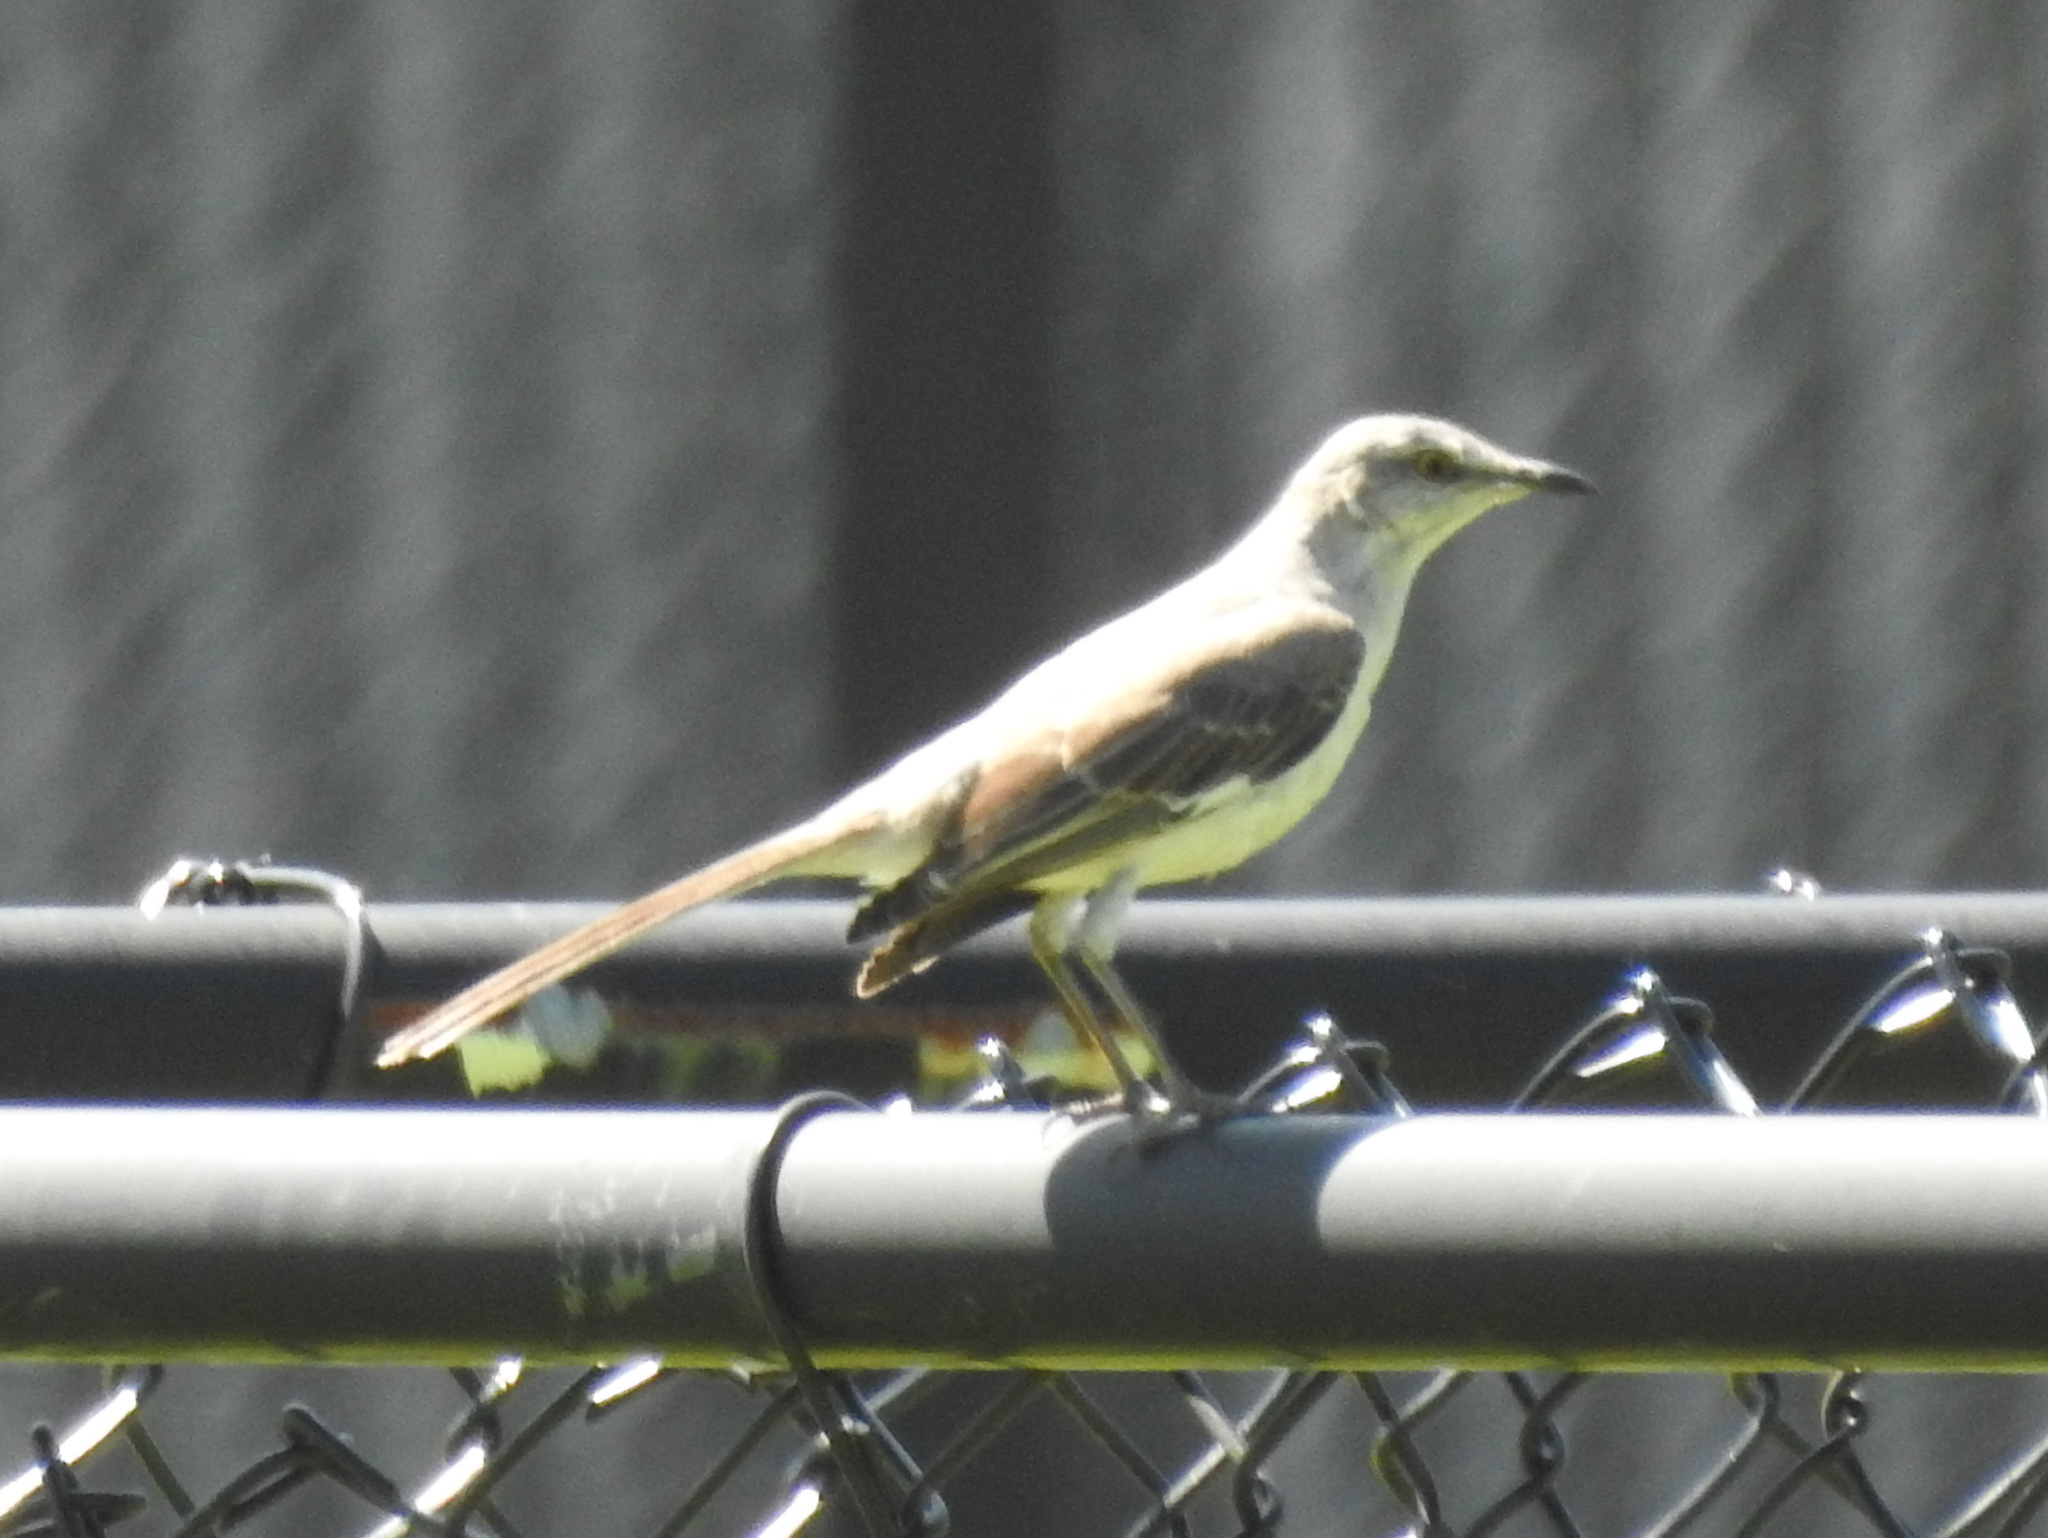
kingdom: Animalia
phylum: Chordata
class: Aves
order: Passeriformes
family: Mimidae
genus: Mimus
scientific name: Mimus polyglottos
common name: Northern mockingbird
